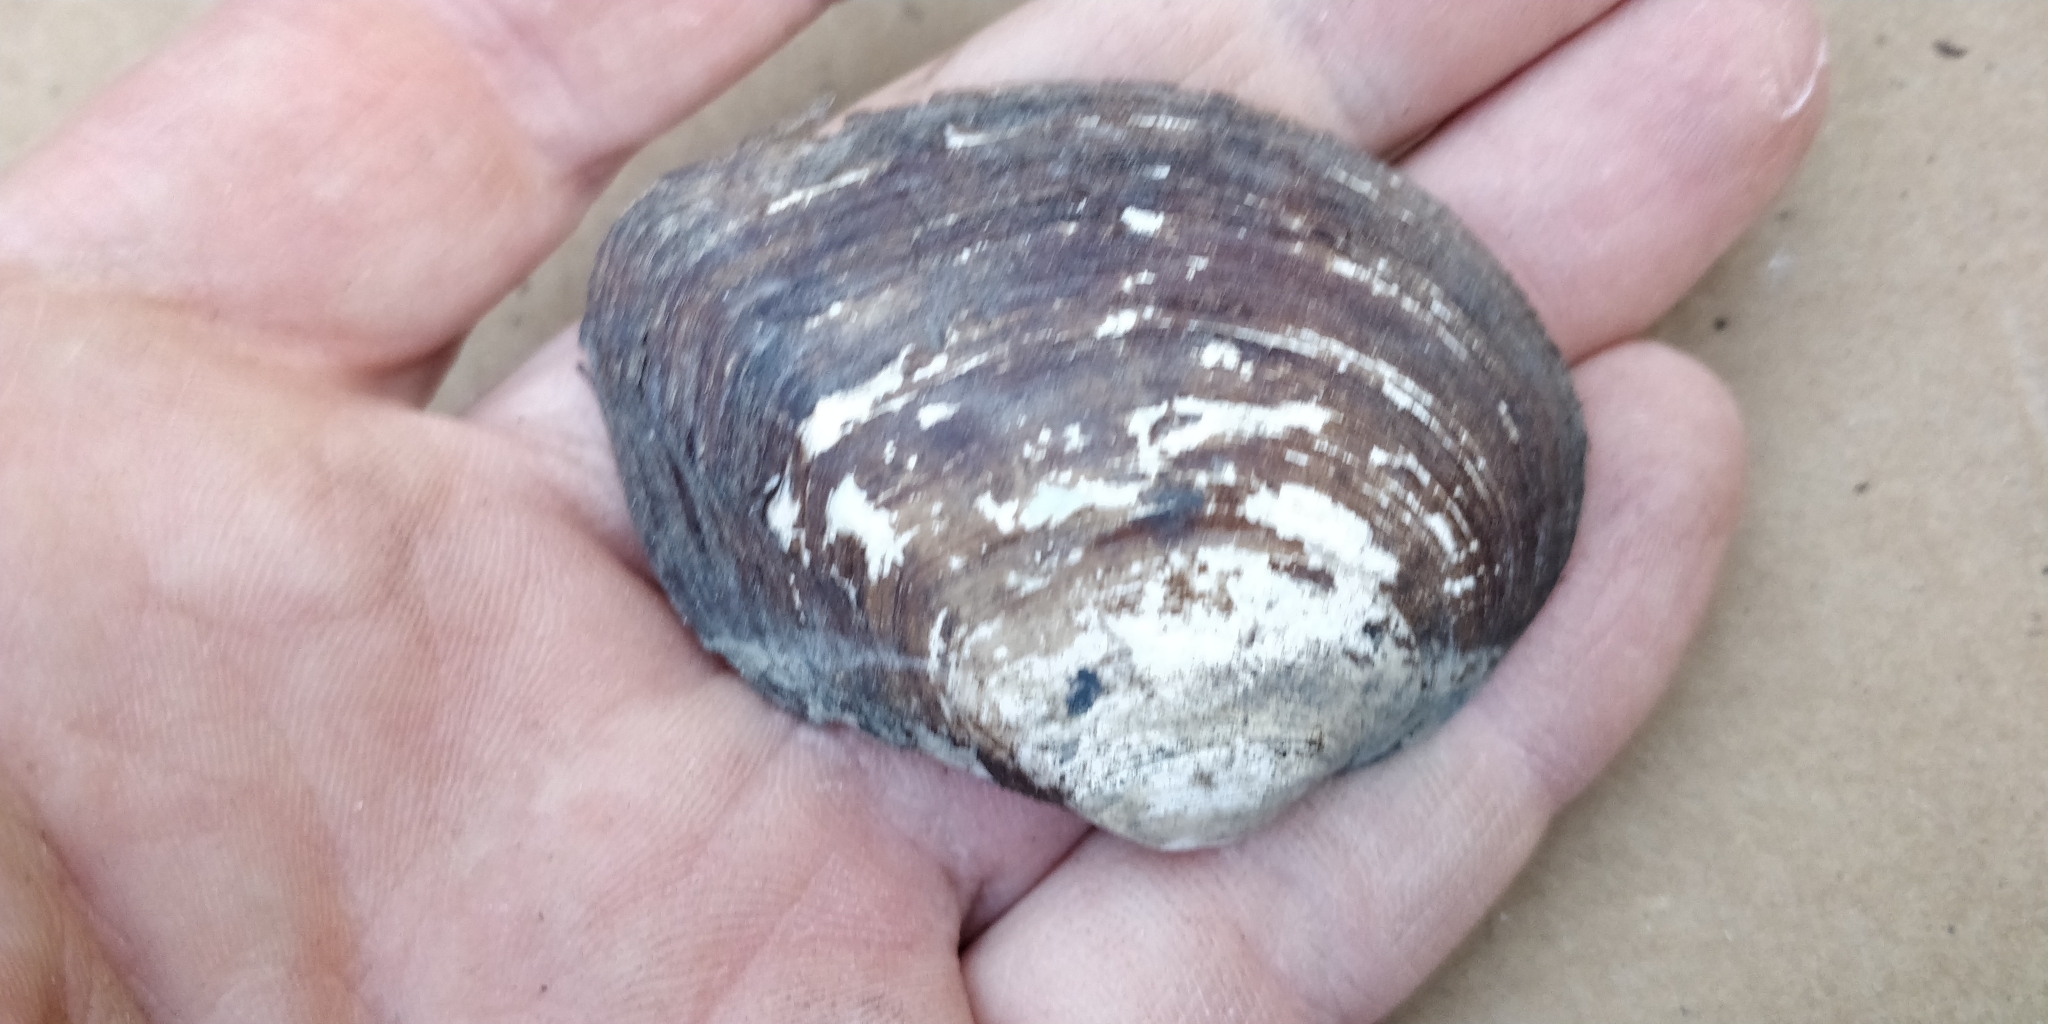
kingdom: Animalia
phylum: Mollusca
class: Bivalvia
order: Unionida
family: Unionidae
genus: Fusconaia
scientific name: Fusconaia flava
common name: Wabash pigtoe
